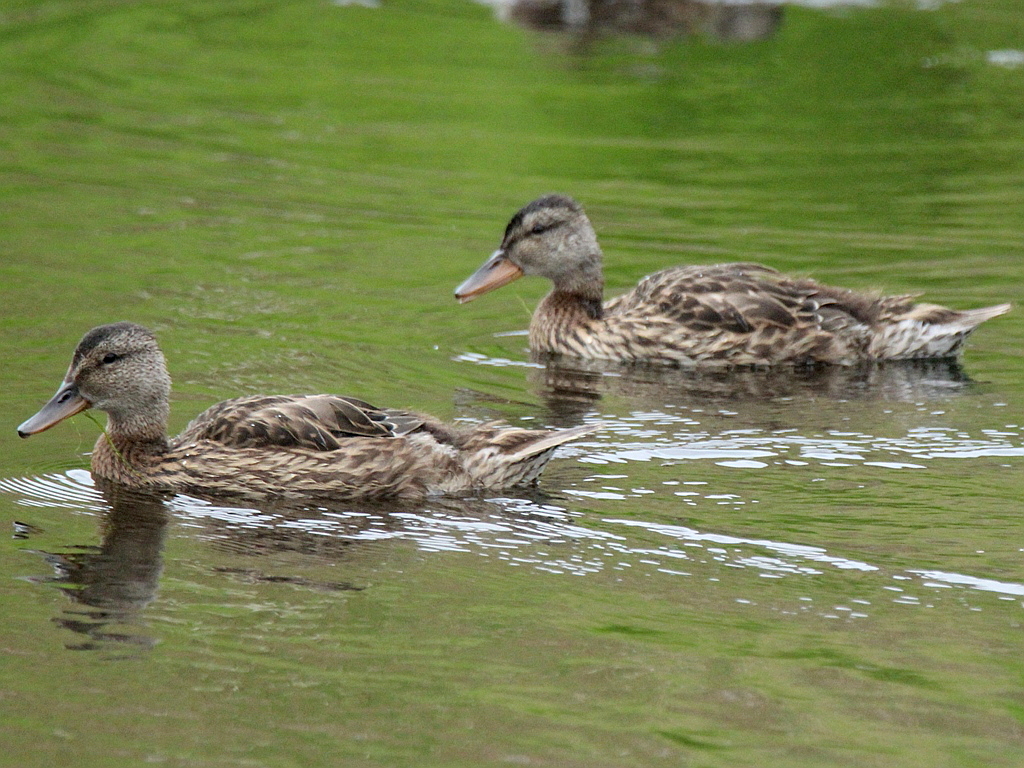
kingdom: Animalia
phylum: Chordata
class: Aves
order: Anseriformes
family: Anatidae
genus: Mareca
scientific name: Mareca strepera
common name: Gadwall
